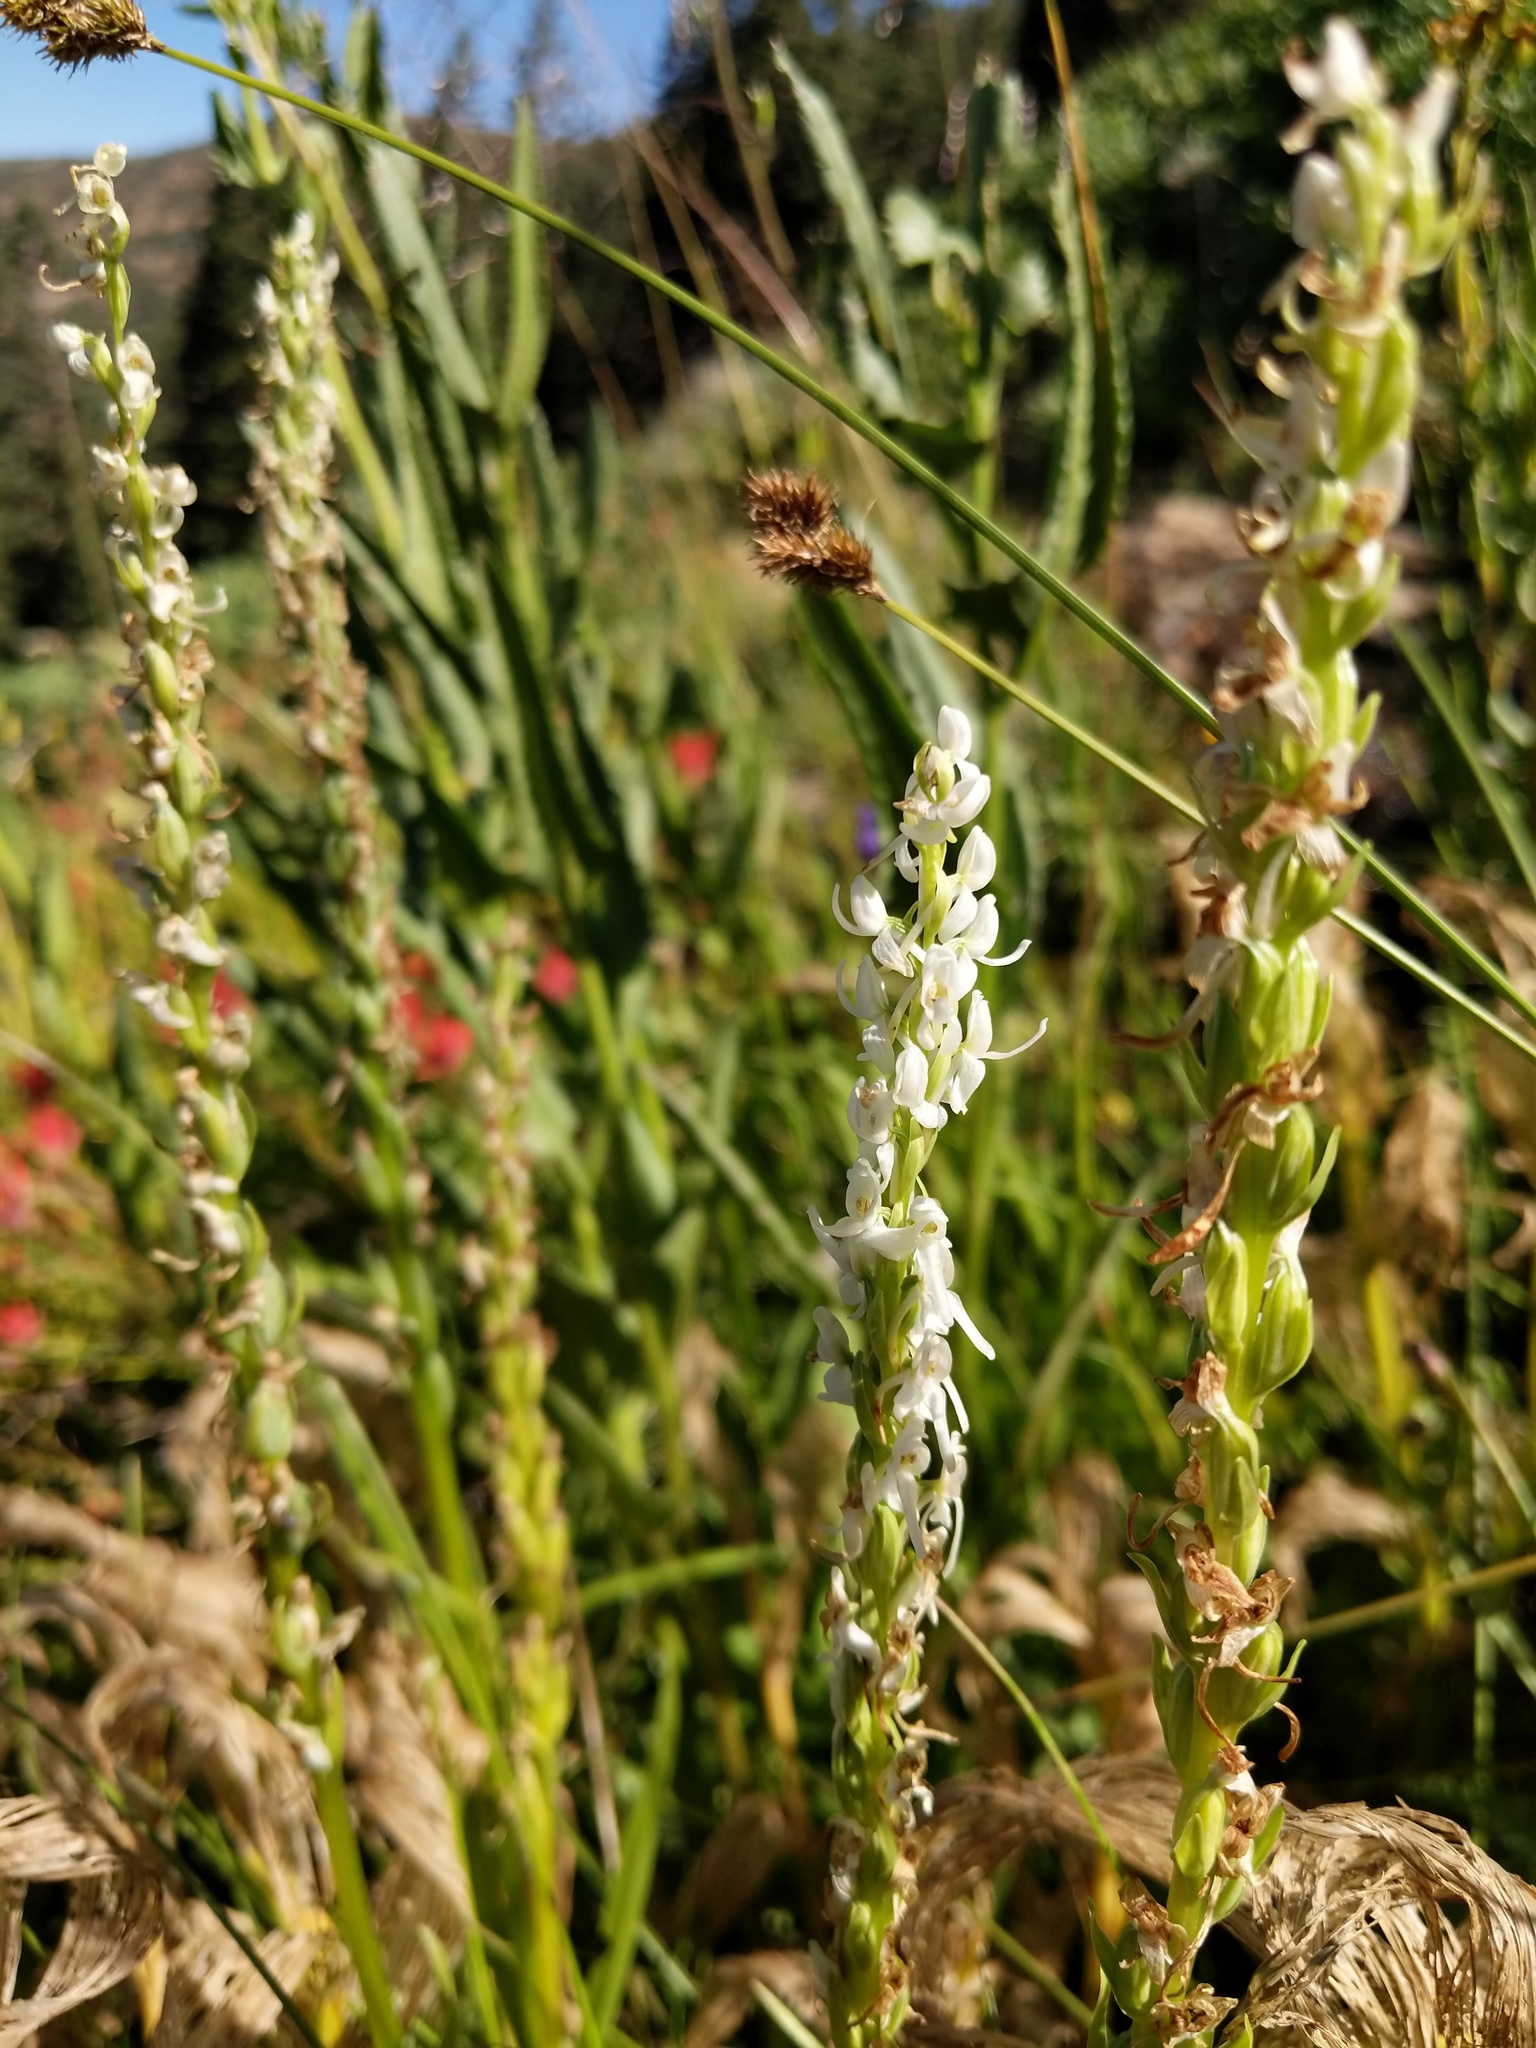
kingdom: Plantae
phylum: Tracheophyta
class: Liliopsida
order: Asparagales
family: Orchidaceae
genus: Platanthera
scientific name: Platanthera dilatata
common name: Bog candles
